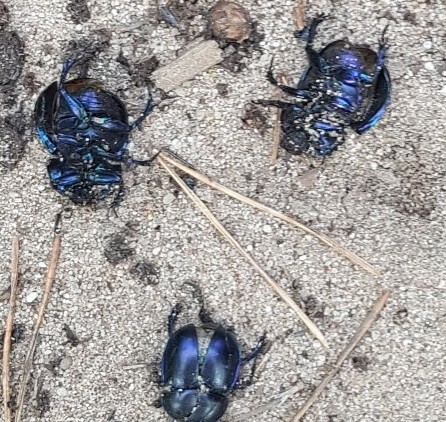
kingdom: Animalia
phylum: Arthropoda
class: Insecta
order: Coleoptera
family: Geotrupidae
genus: Trypocopris
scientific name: Trypocopris vernalis
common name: Spring dumbledor
